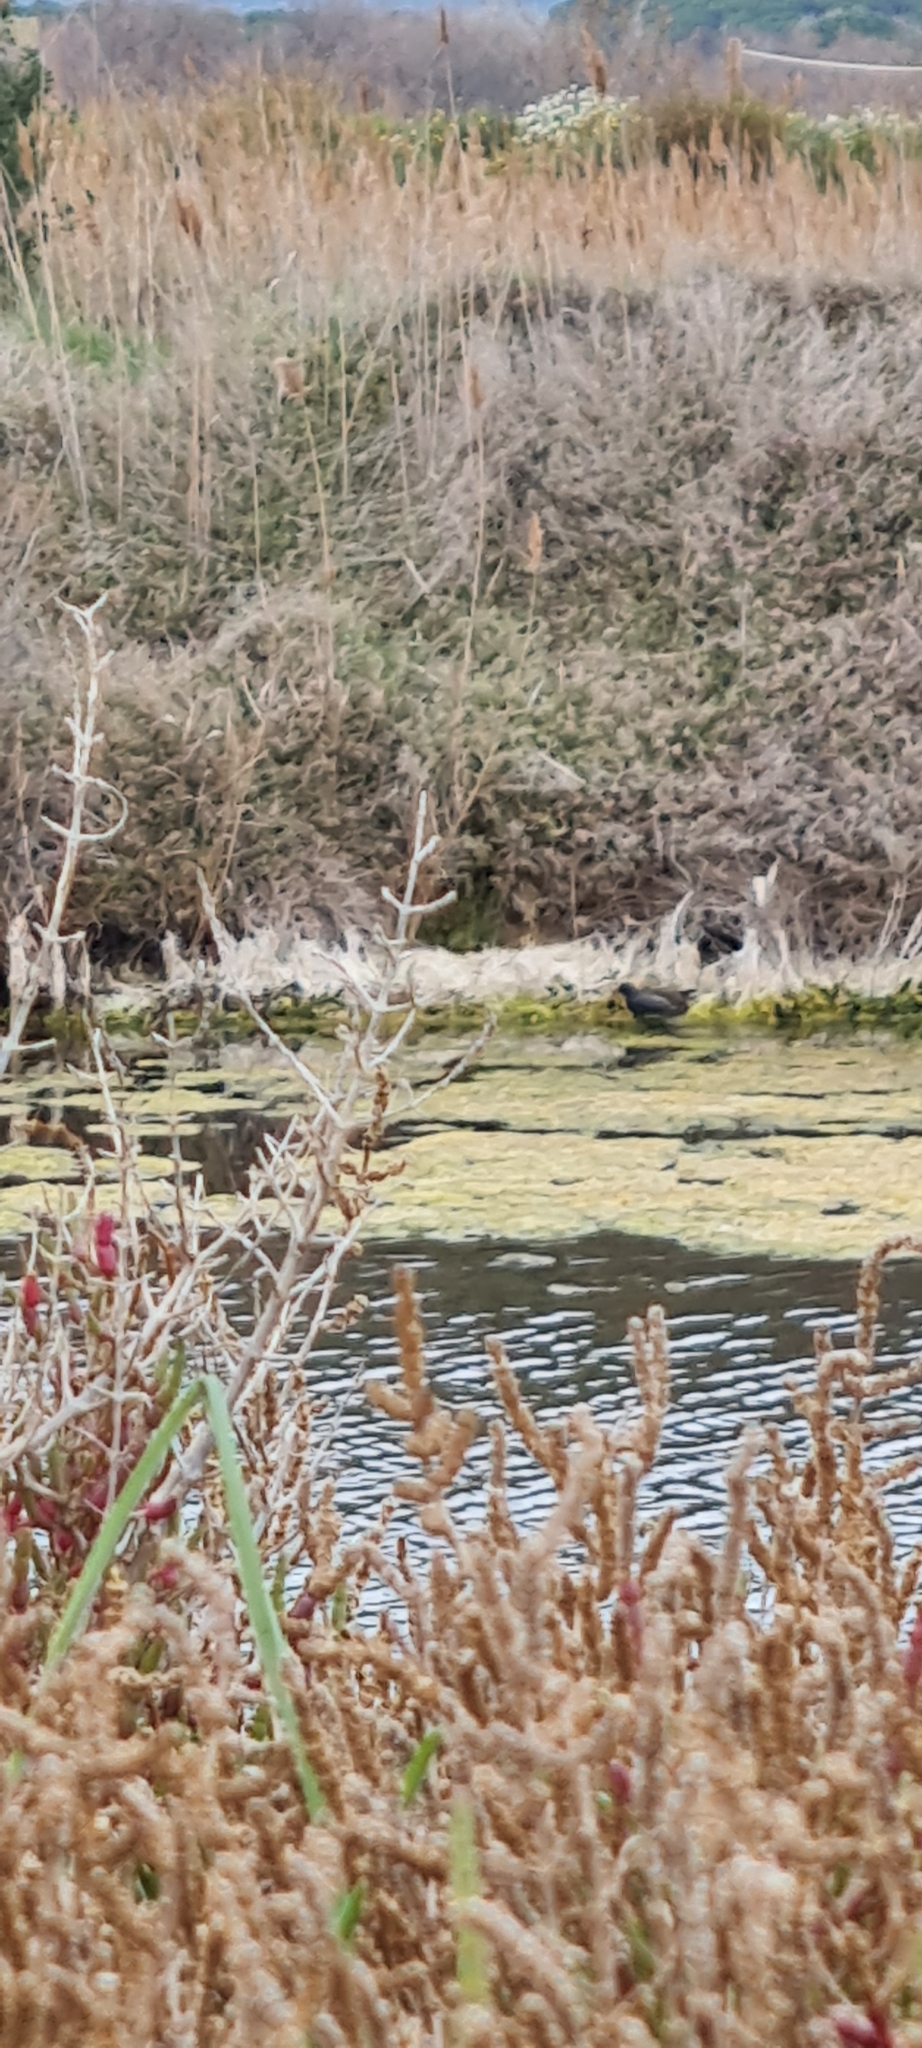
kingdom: Animalia
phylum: Chordata
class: Aves
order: Gruiformes
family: Rallidae
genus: Gallinula
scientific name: Gallinula chloropus
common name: Common moorhen
